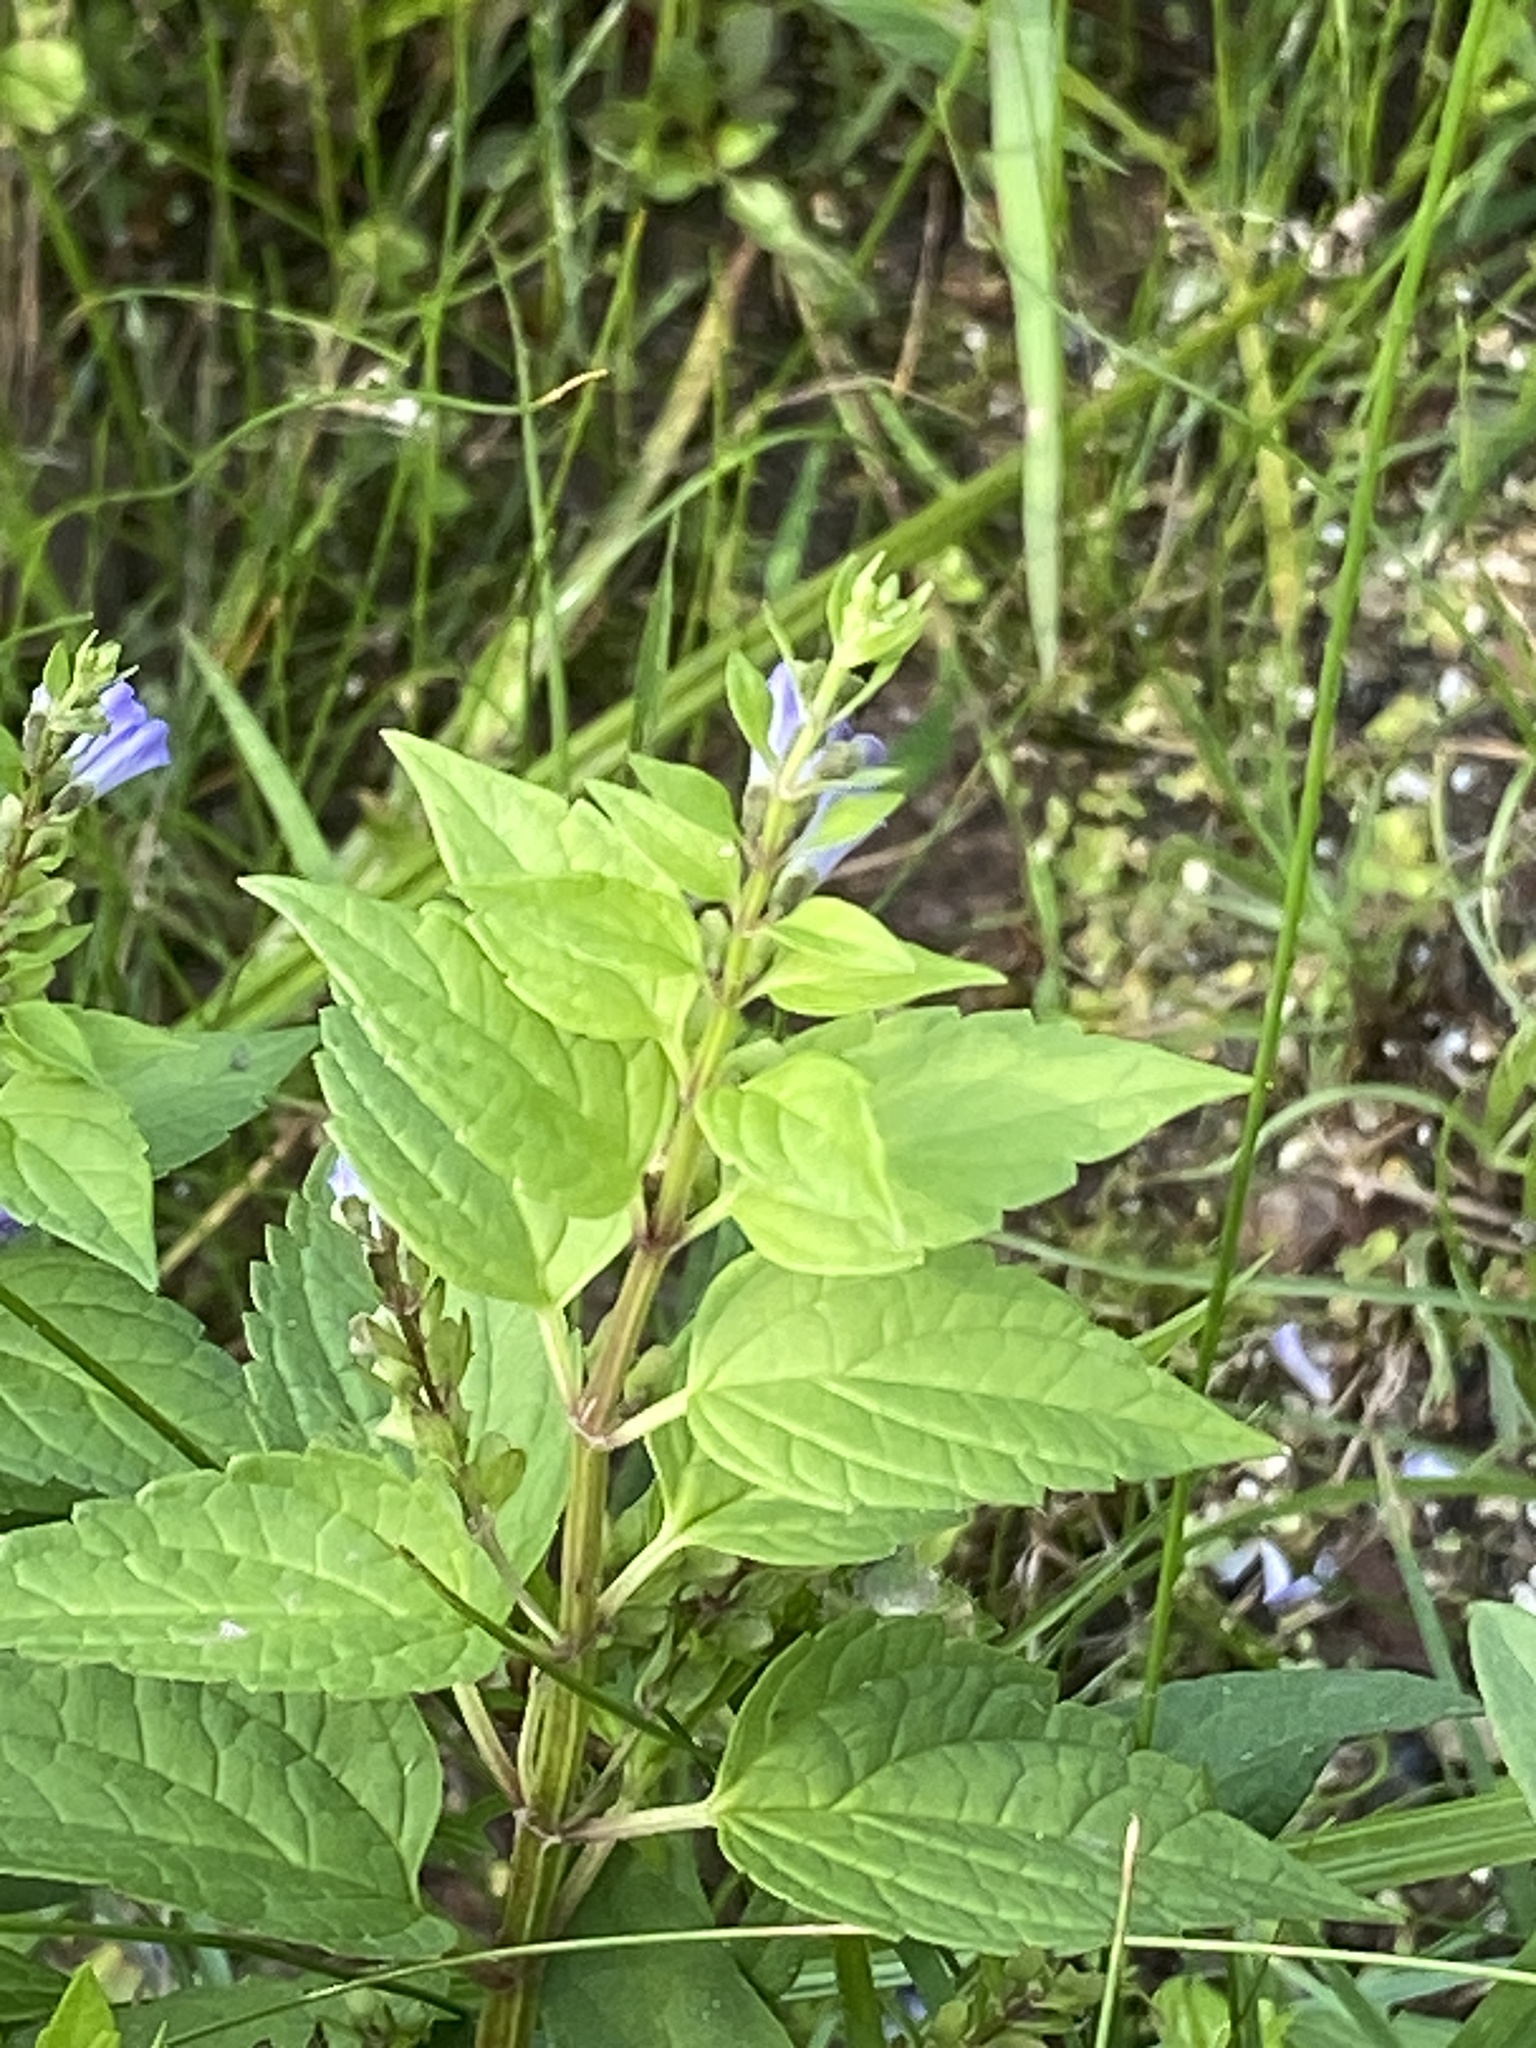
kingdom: Plantae
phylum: Tracheophyta
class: Magnoliopsida
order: Lamiales
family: Lamiaceae
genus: Scutellaria
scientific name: Scutellaria lateriflora
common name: Blue skullcap
